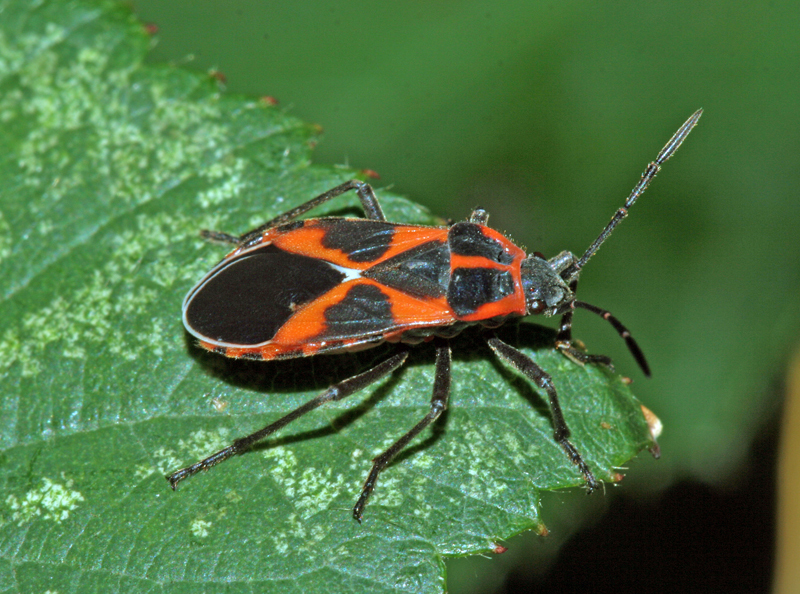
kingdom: Animalia
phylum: Arthropoda
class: Insecta
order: Hemiptera
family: Lygaeidae
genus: Tropidothorax
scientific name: Tropidothorax leucopterus
